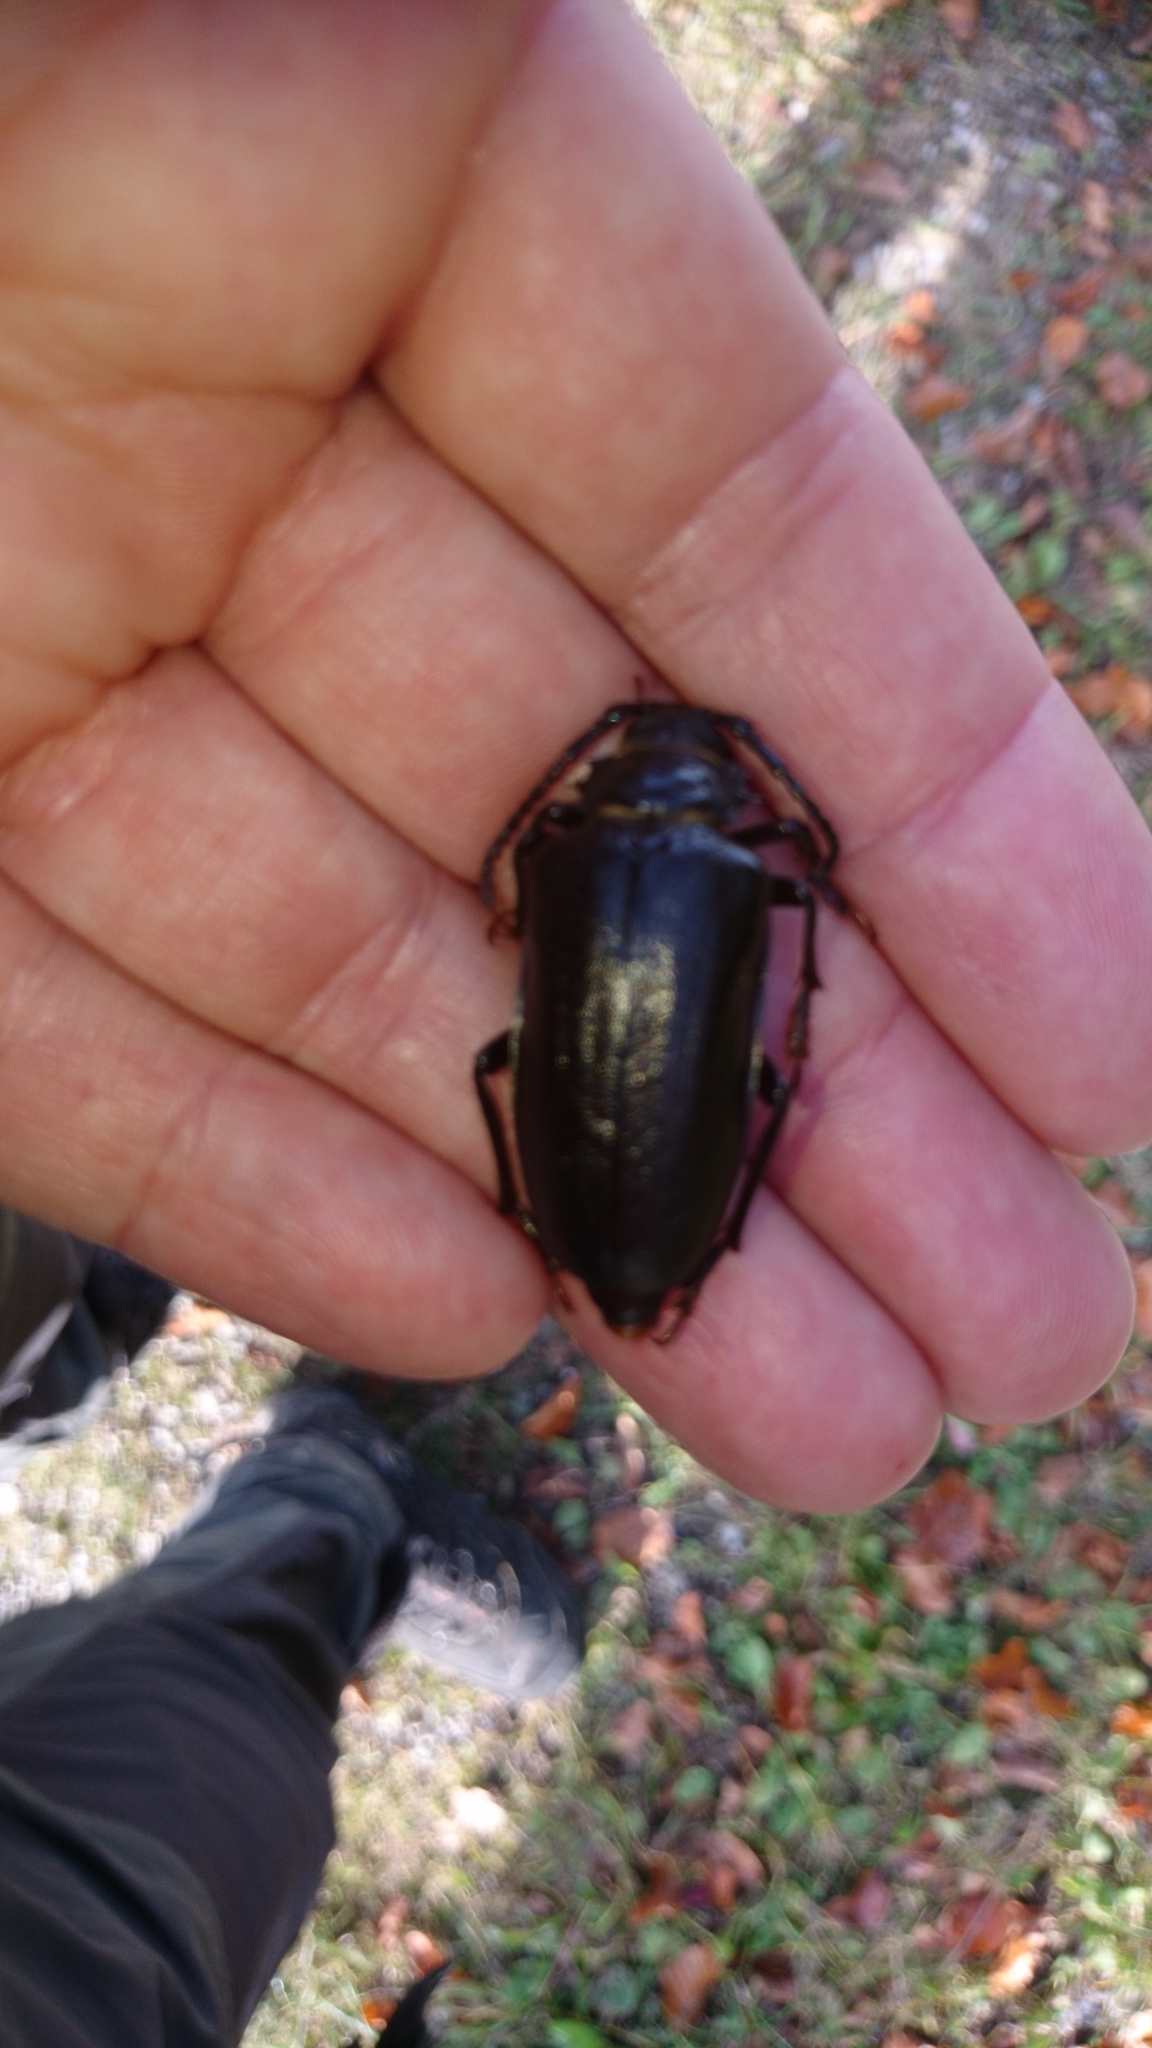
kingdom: Animalia
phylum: Arthropoda
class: Insecta
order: Coleoptera
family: Cerambycidae
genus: Prionus
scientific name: Prionus coriarius
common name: Tanner beetle
